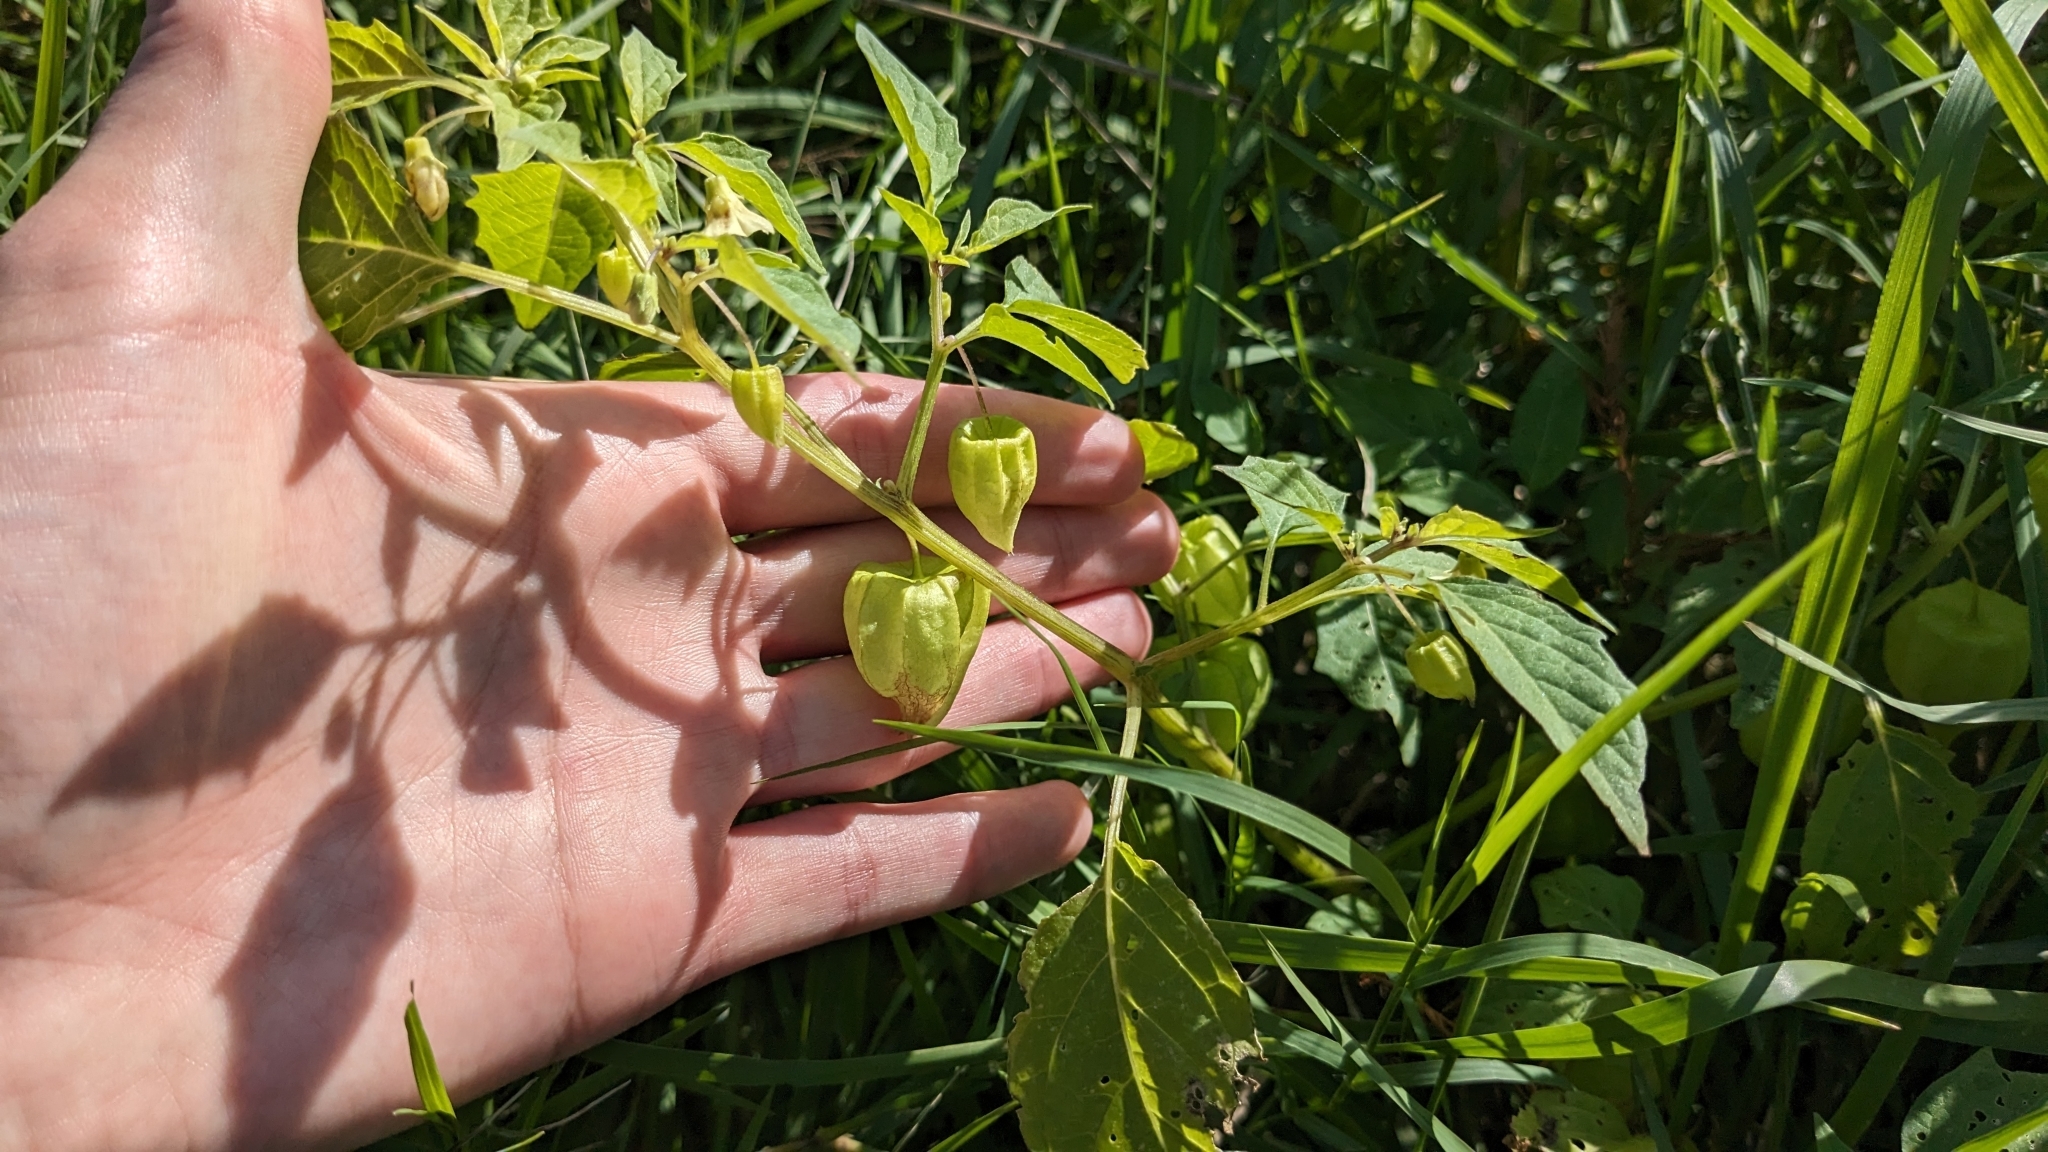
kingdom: Plantae
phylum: Tracheophyta
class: Magnoliopsida
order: Solanales
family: Solanaceae
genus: Physalis
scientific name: Physalis angulata
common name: Angular winter-cherry
